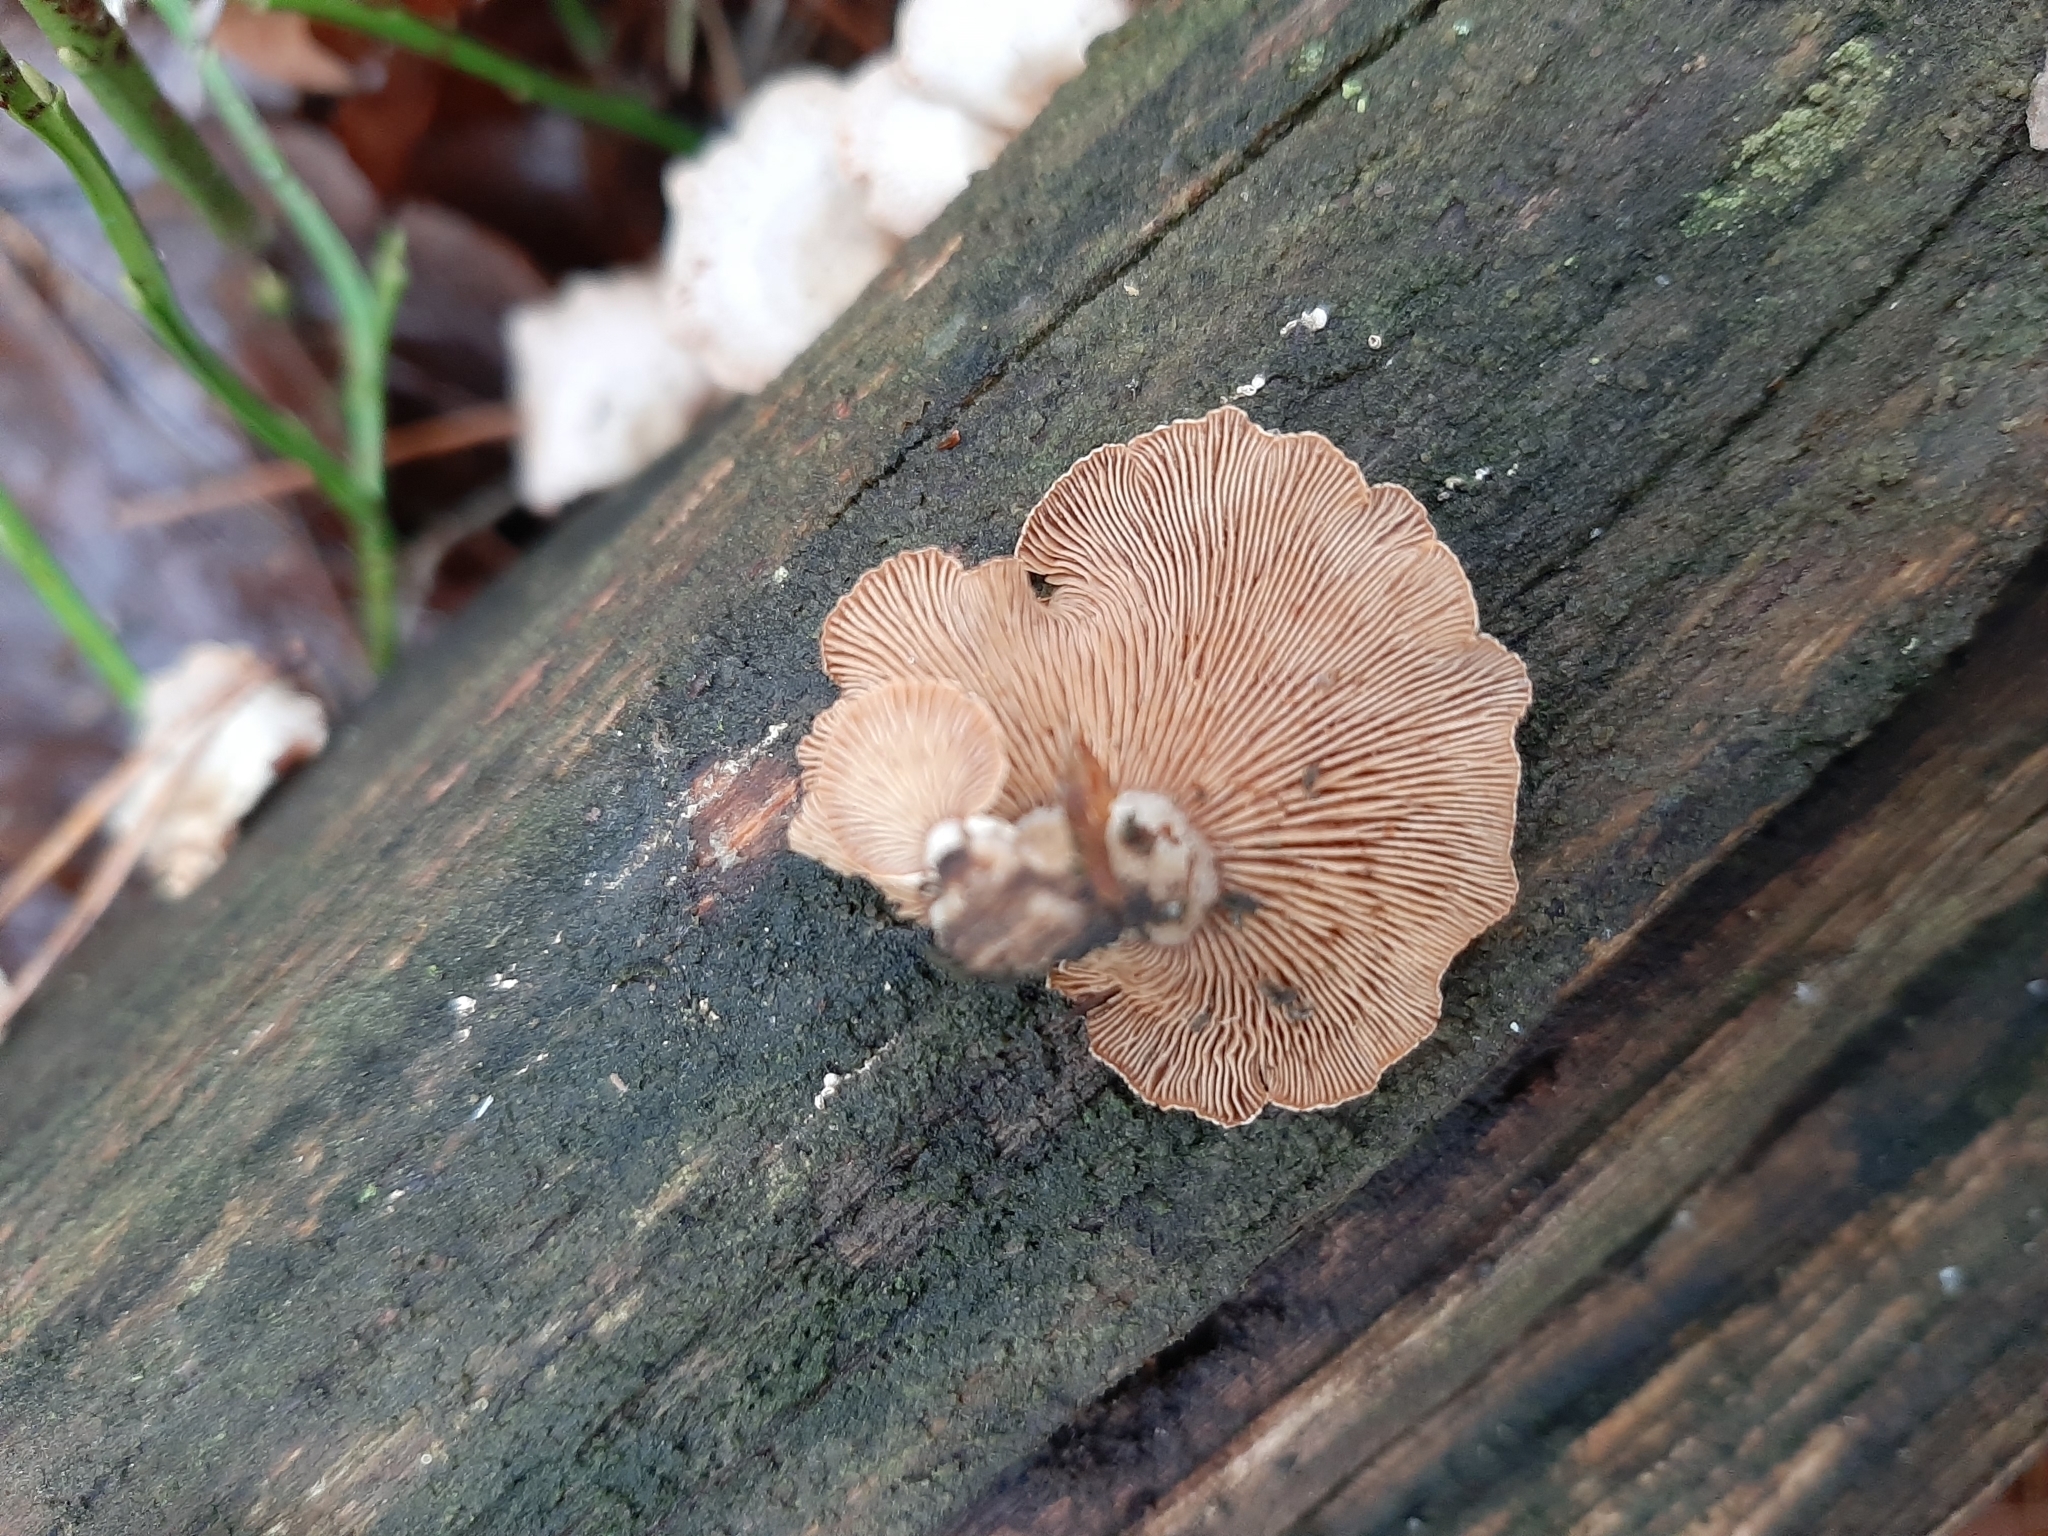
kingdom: Fungi
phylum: Basidiomycota
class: Agaricomycetes
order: Agaricales
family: Mycenaceae
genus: Panellus
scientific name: Panellus stipticus
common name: Bitter oysterling
